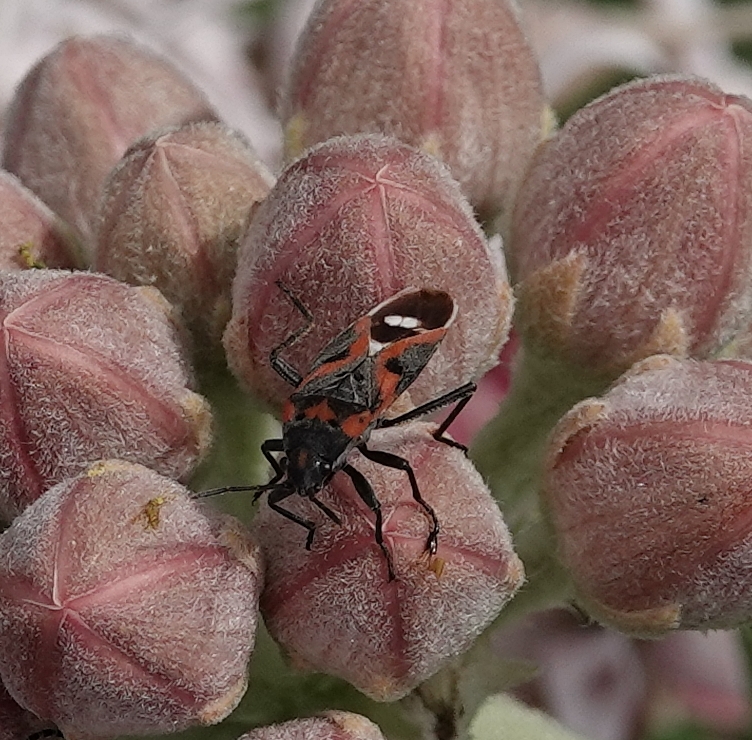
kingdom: Animalia
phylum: Arthropoda
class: Insecta
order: Hemiptera
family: Lygaeidae
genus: Lygaeus
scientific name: Lygaeus kalmii
